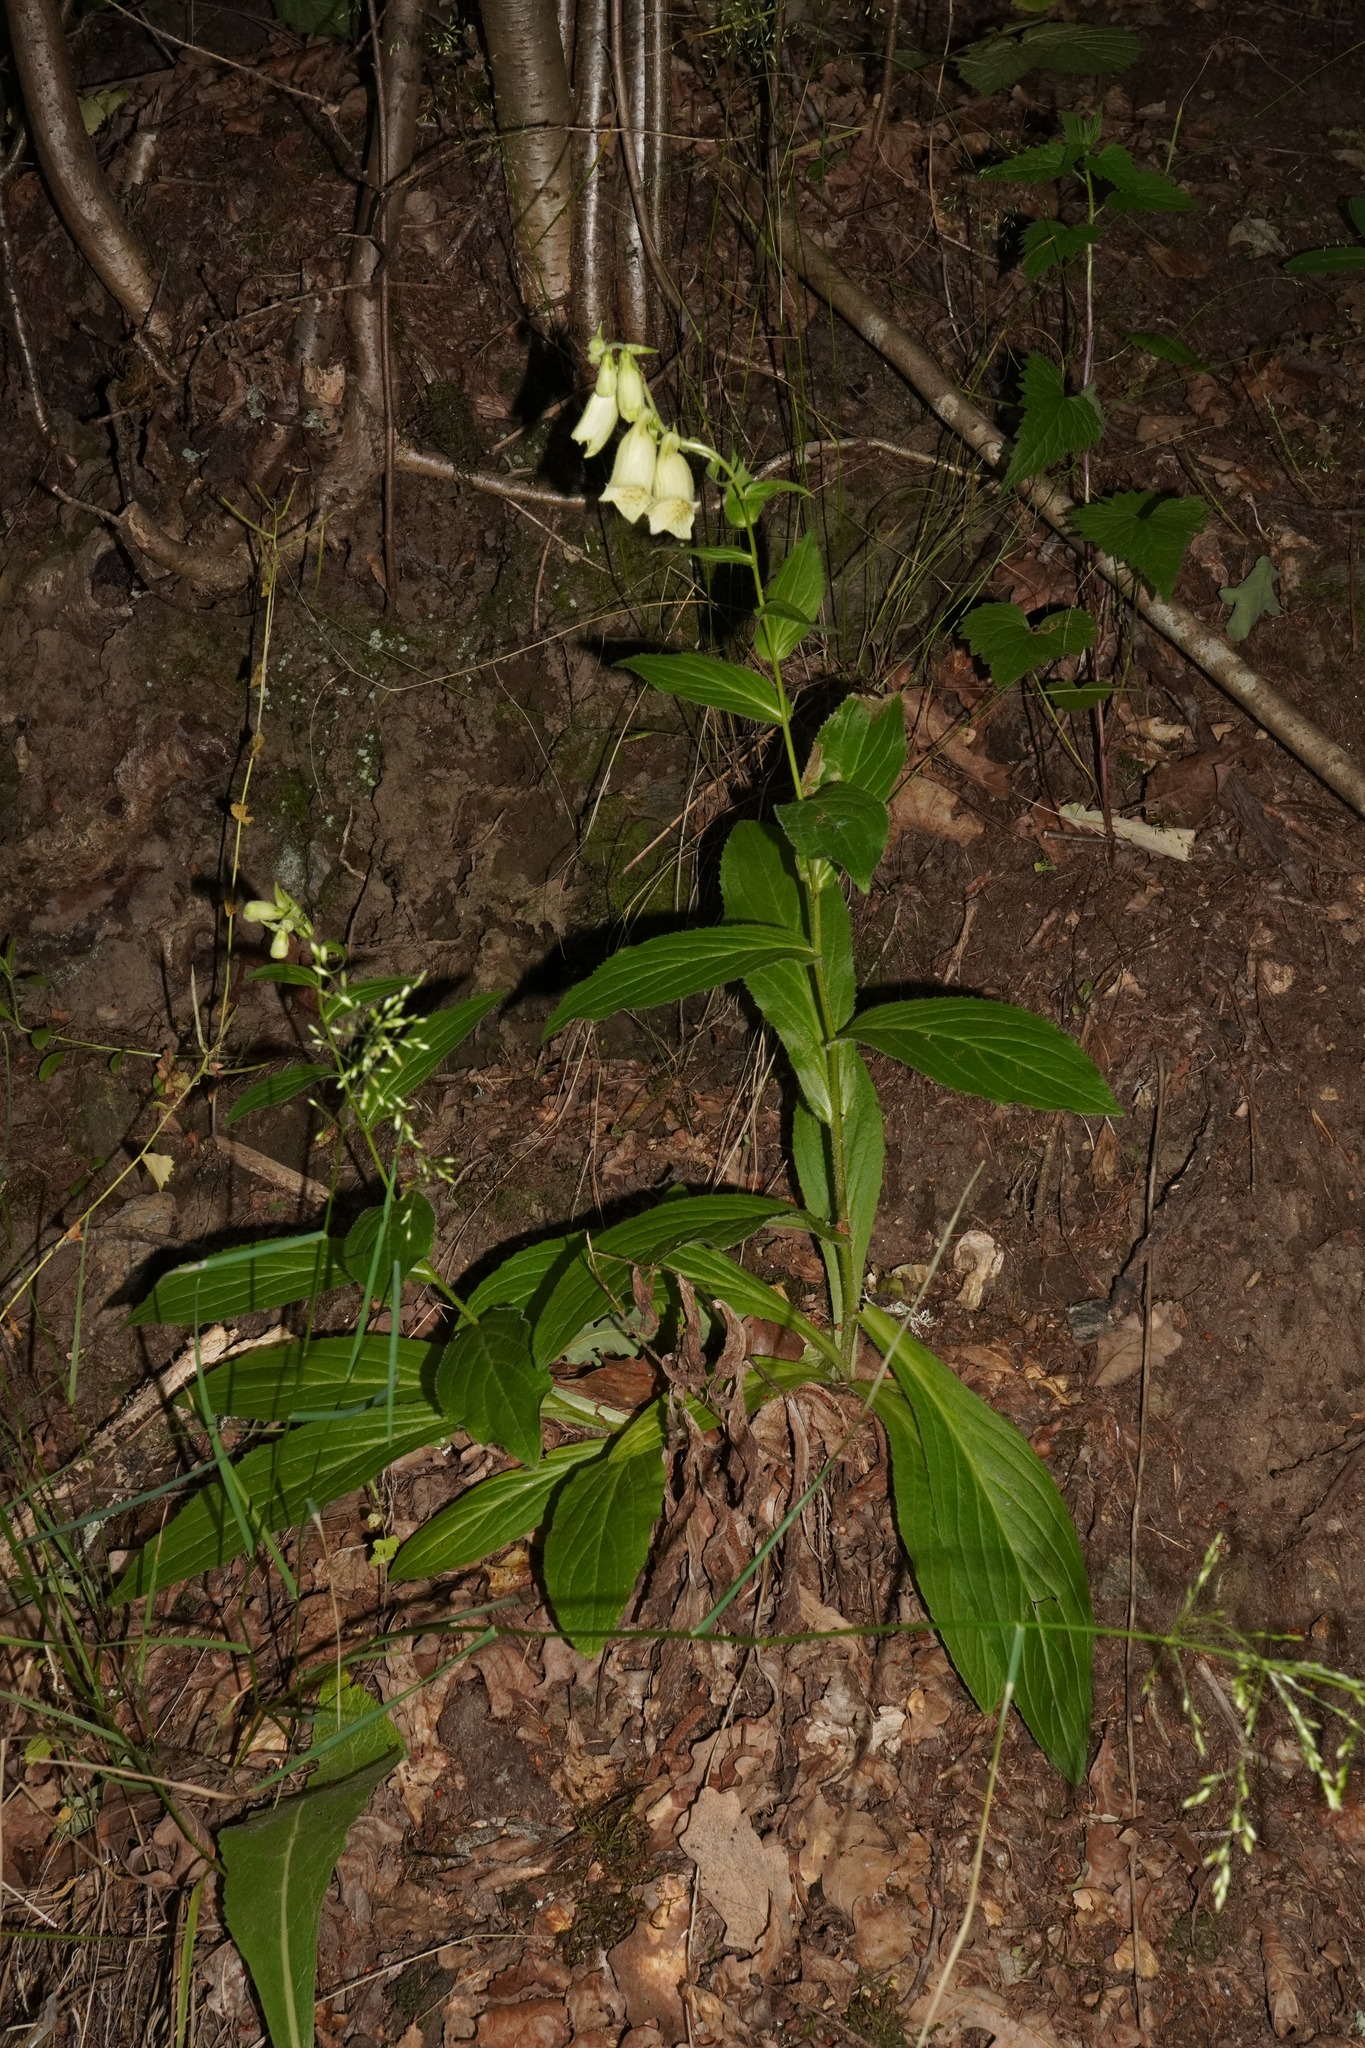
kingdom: Plantae
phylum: Tracheophyta
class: Magnoliopsida
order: Lamiales
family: Plantaginaceae
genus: Digitalis
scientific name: Digitalis grandiflora
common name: Yellow foxglove
